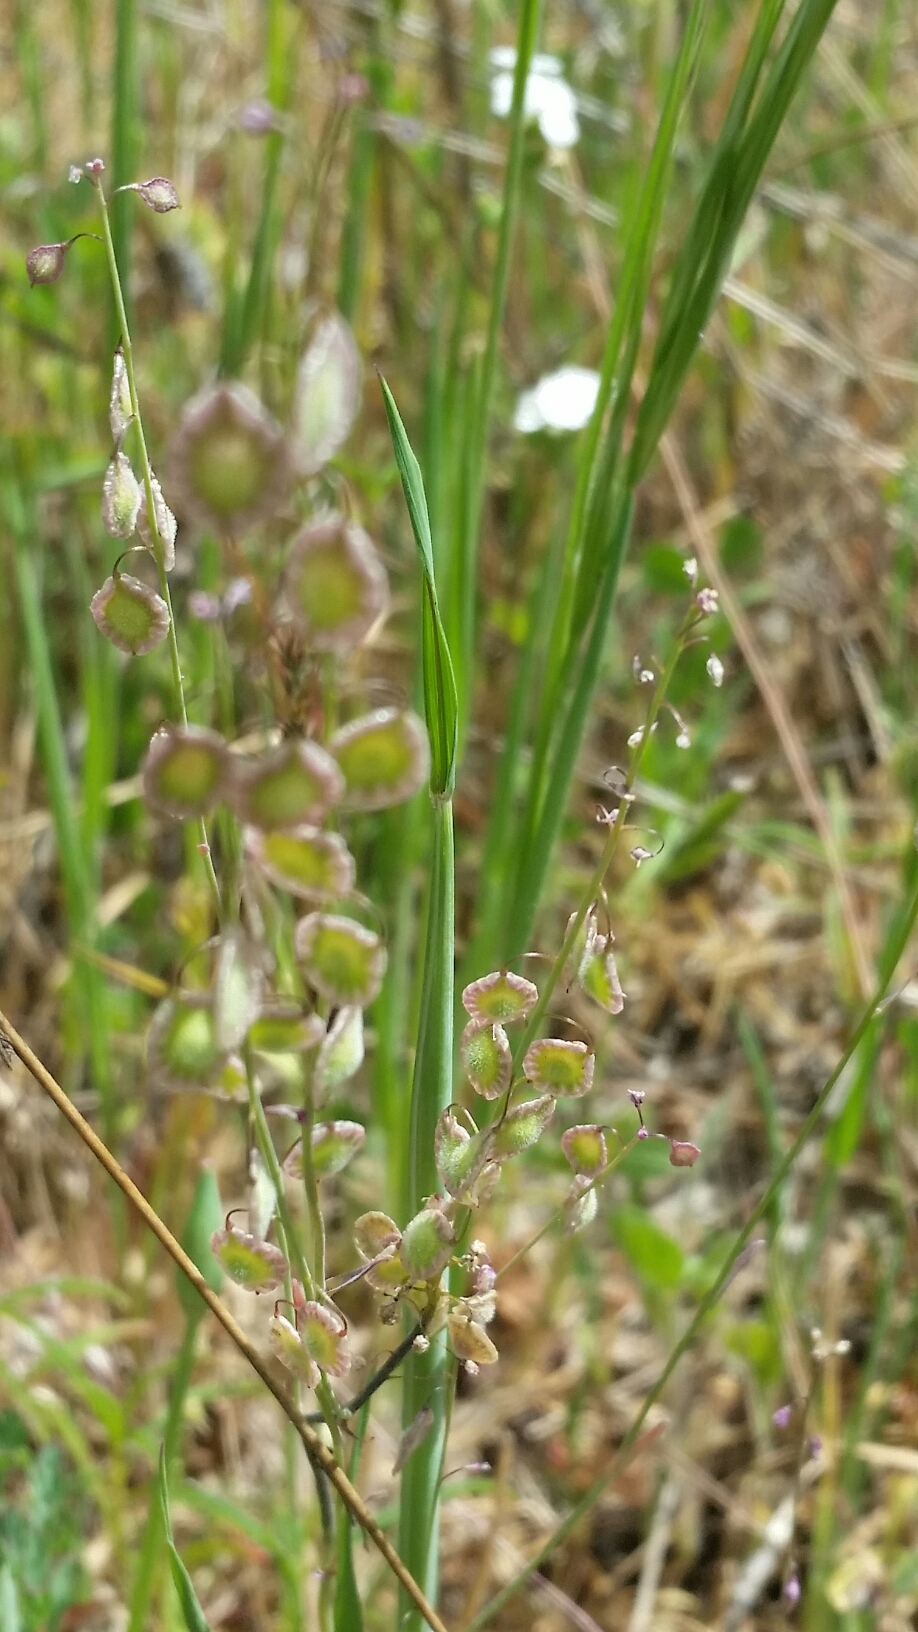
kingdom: Plantae
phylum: Tracheophyta
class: Magnoliopsida
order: Brassicales
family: Brassicaceae
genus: Thysanocarpus
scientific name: Thysanocarpus curvipes
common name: Sand fringepod
